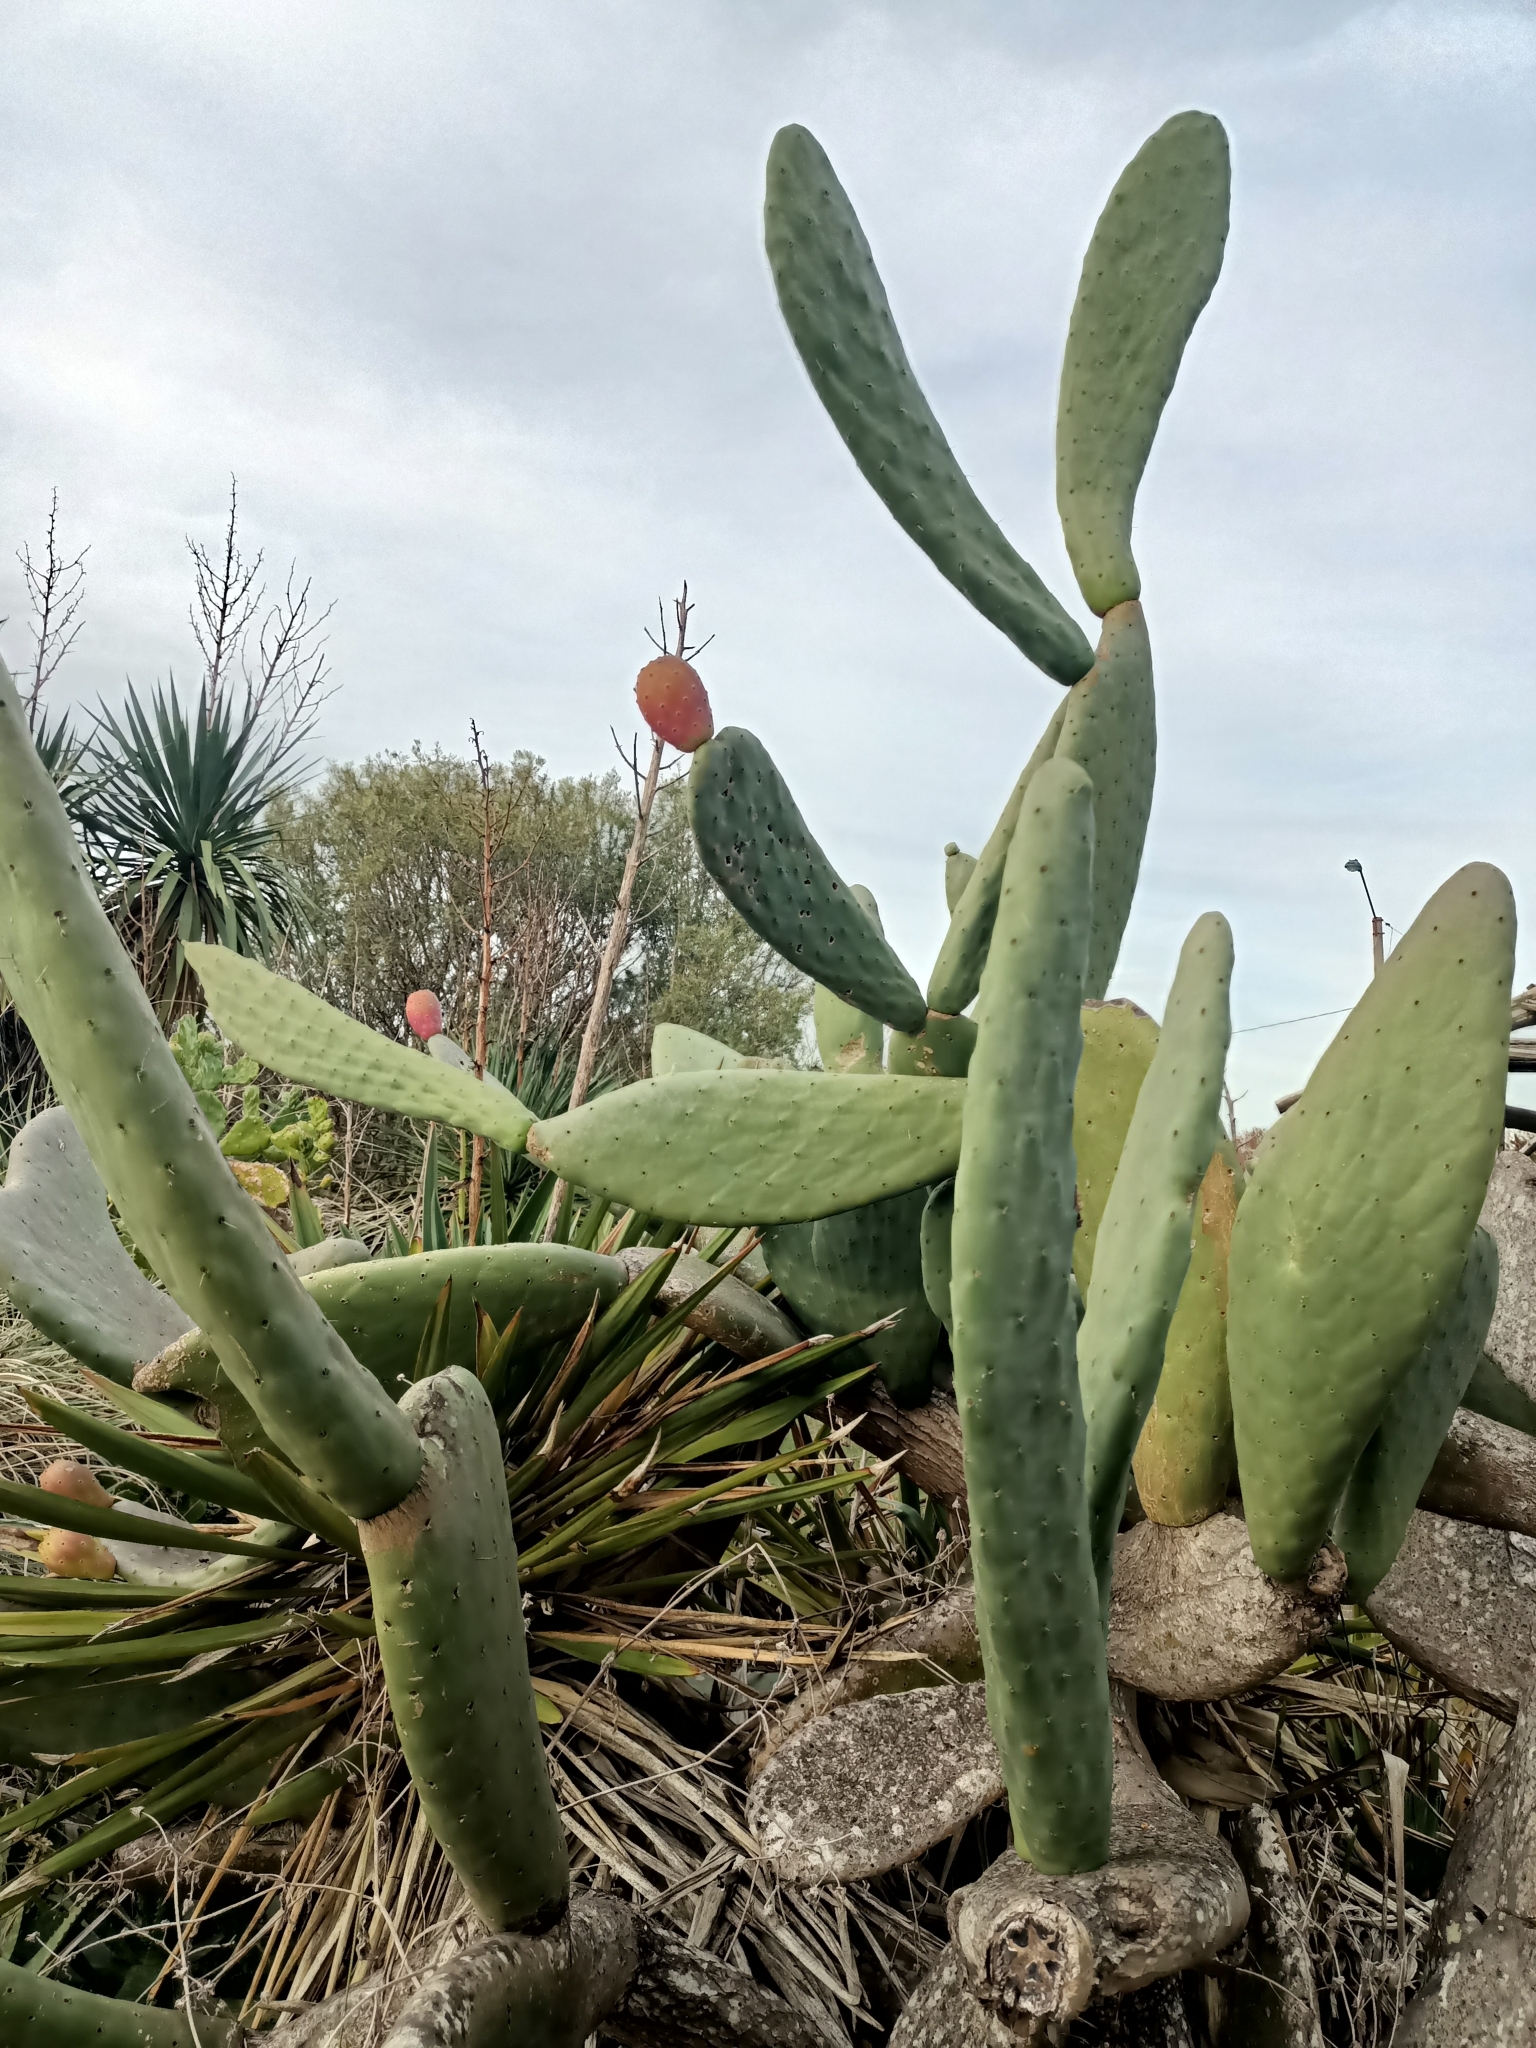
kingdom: Plantae
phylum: Tracheophyta
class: Magnoliopsida
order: Caryophyllales
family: Cactaceae
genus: Opuntia
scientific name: Opuntia ficus-indica
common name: Barbary fig
